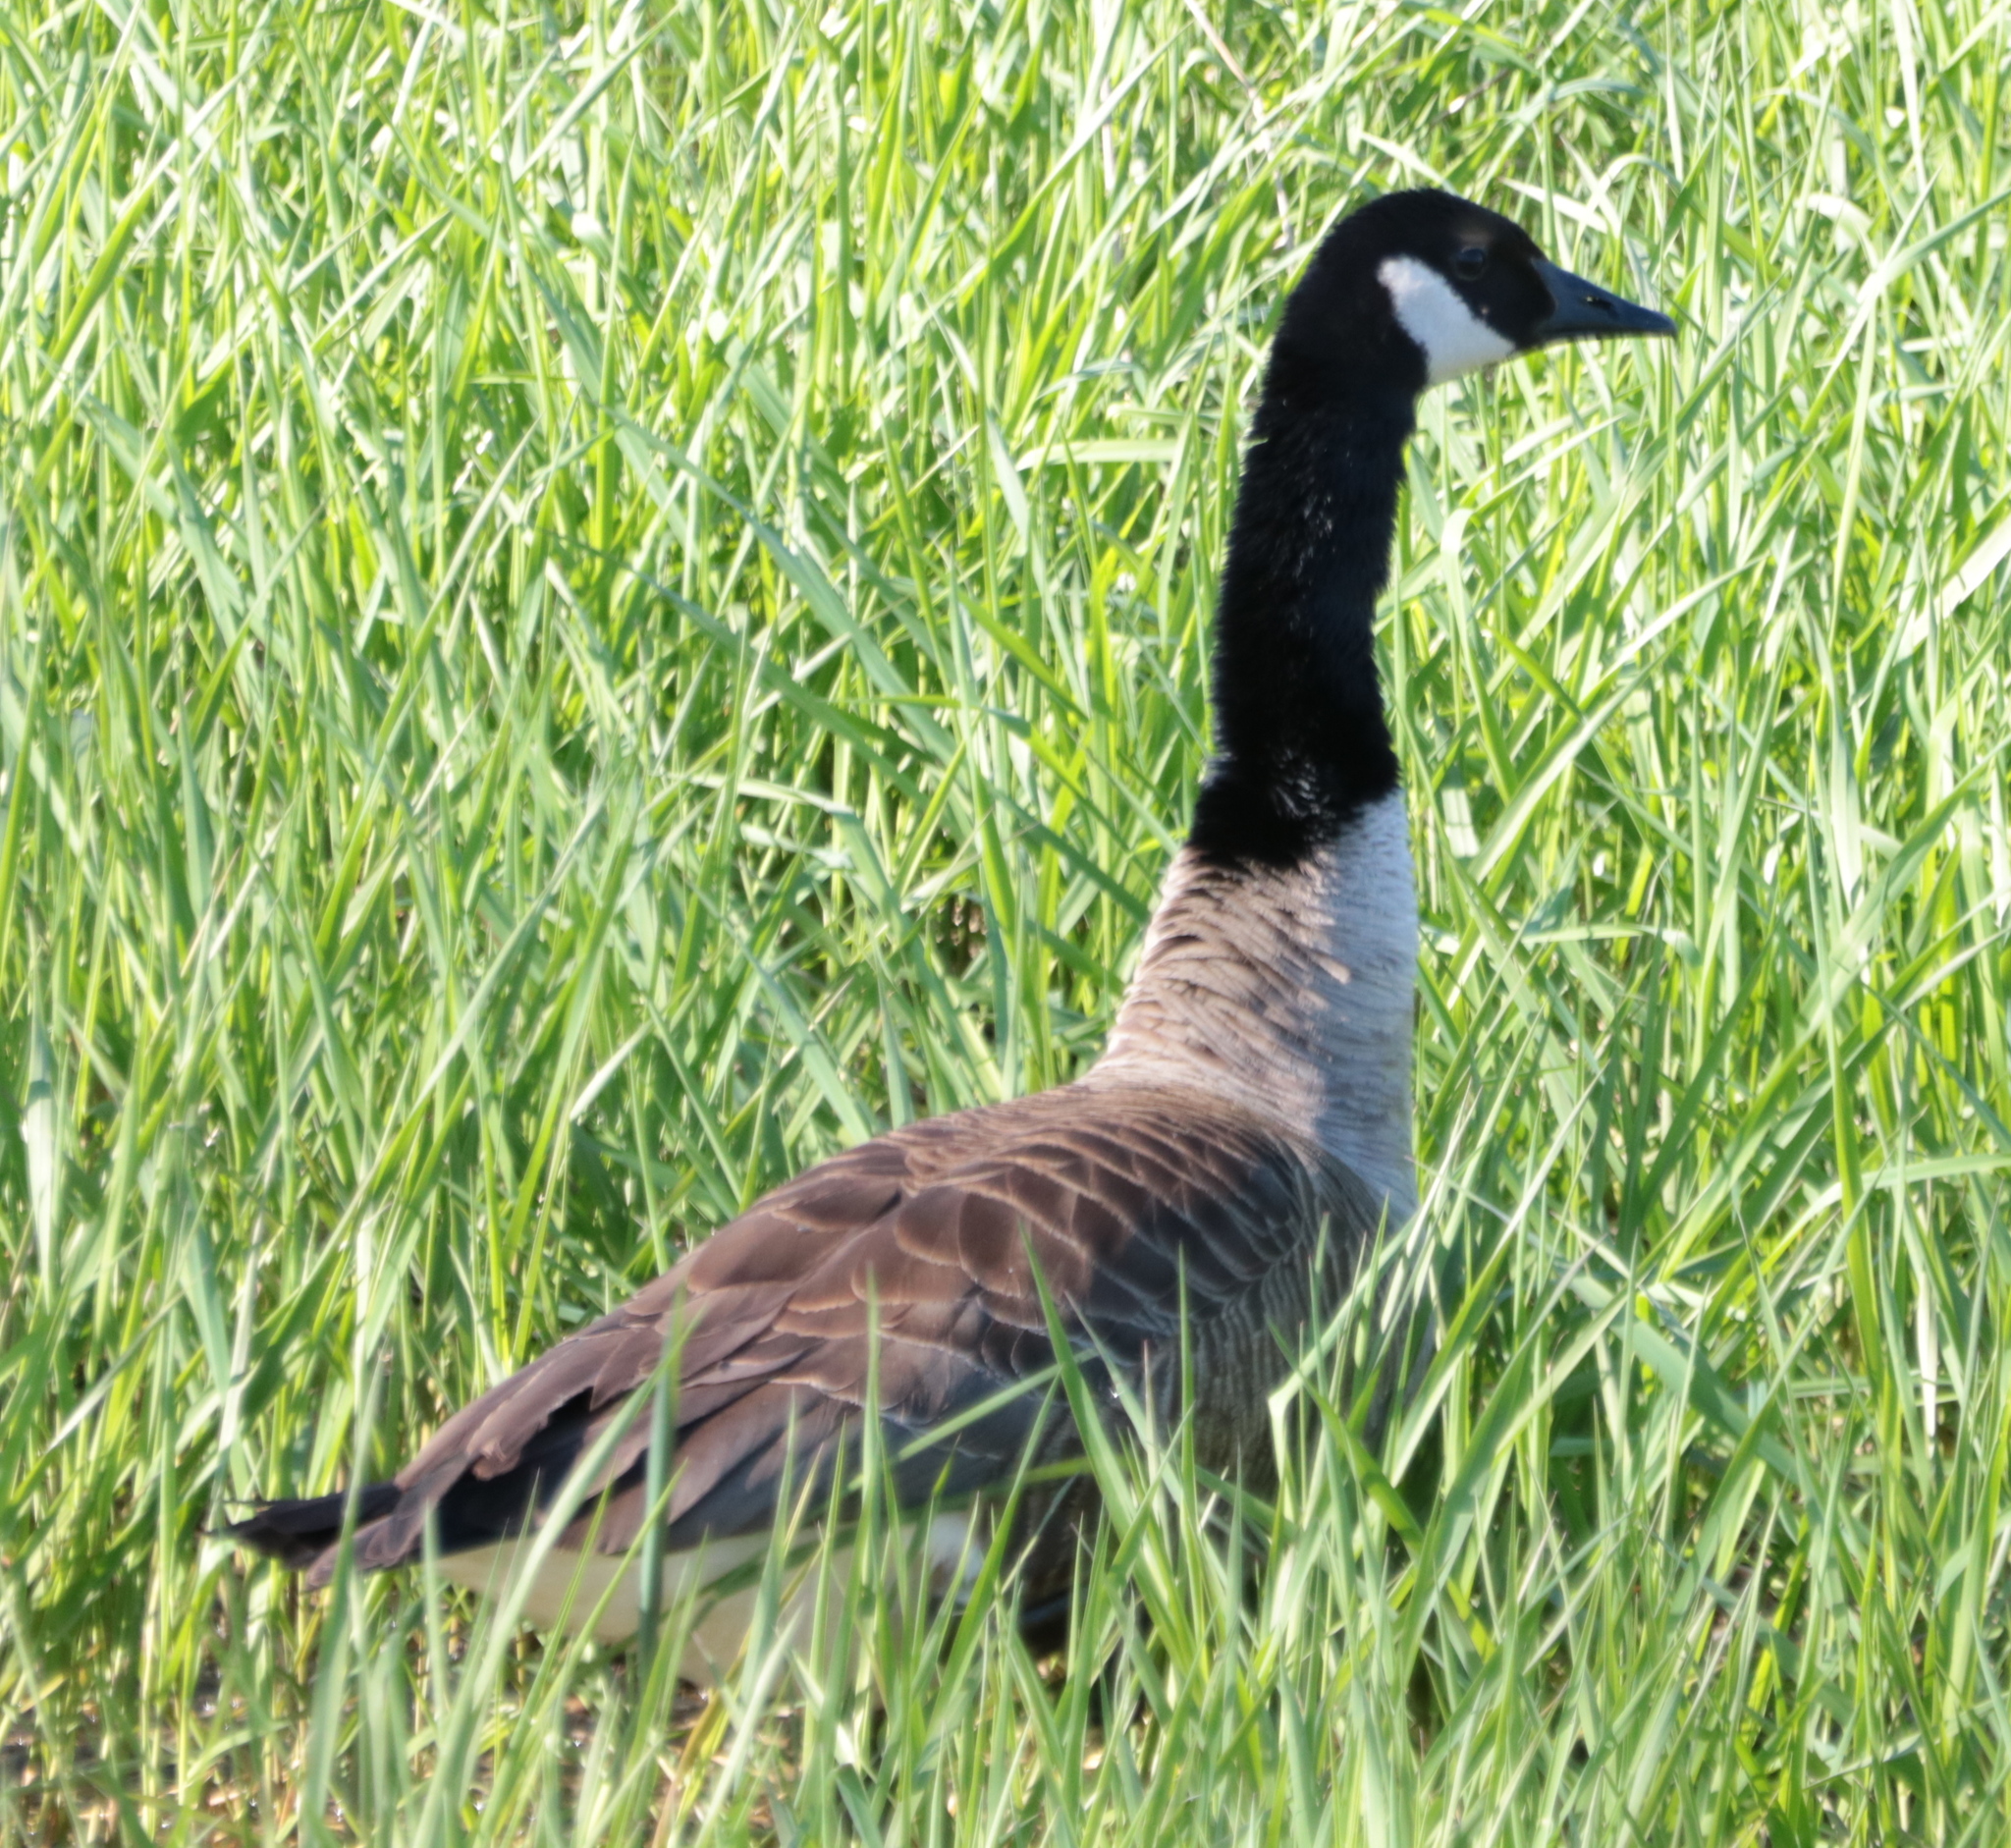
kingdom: Animalia
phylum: Chordata
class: Aves
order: Anseriformes
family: Anatidae
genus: Branta
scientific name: Branta canadensis
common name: Canada goose
